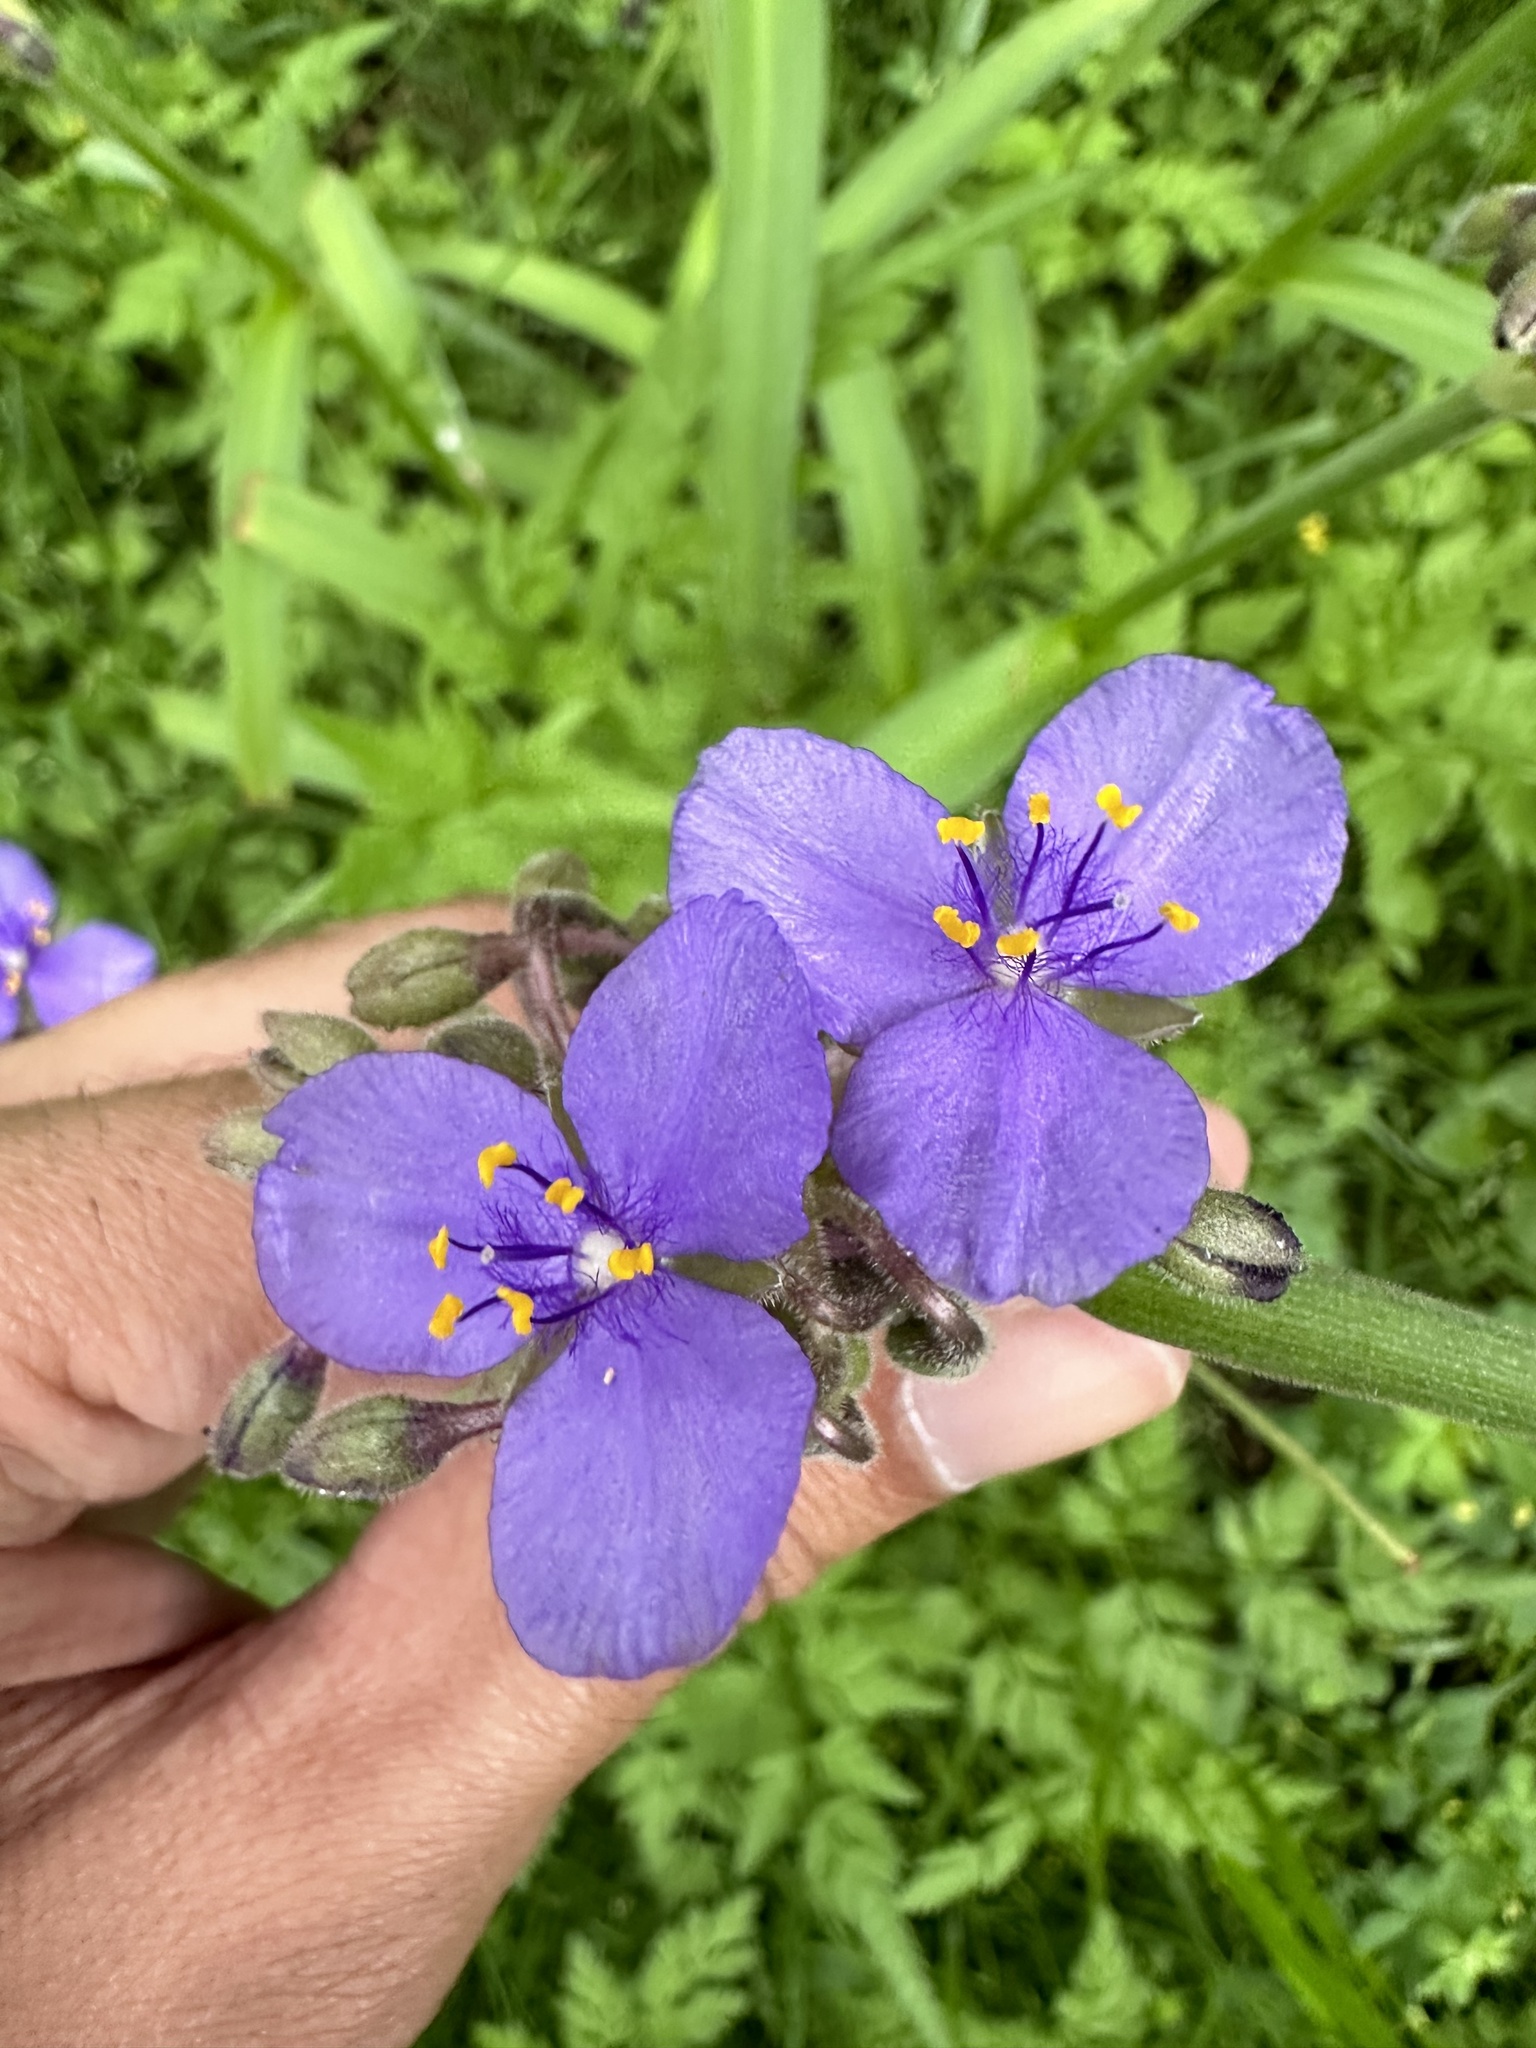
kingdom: Plantae
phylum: Tracheophyta
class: Liliopsida
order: Commelinales
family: Commelinaceae
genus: Tradescantia
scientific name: Tradescantia ohiensis
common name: Ohio spiderwort
